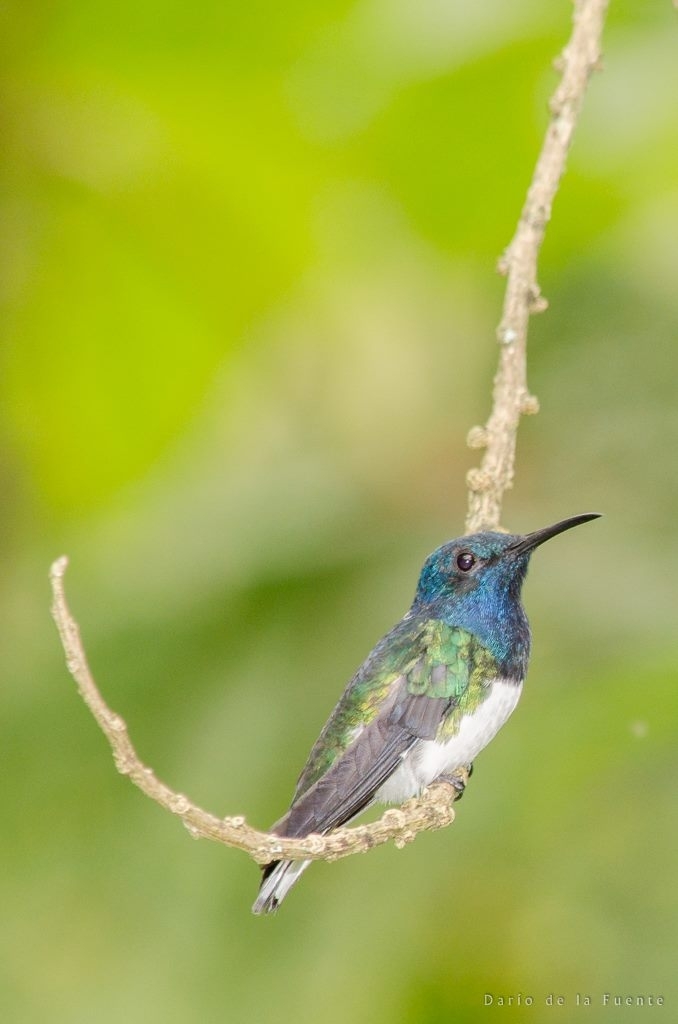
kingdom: Animalia
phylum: Chordata
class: Aves
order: Apodiformes
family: Trochilidae
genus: Florisuga
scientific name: Florisuga mellivora
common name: White-necked jacobin
